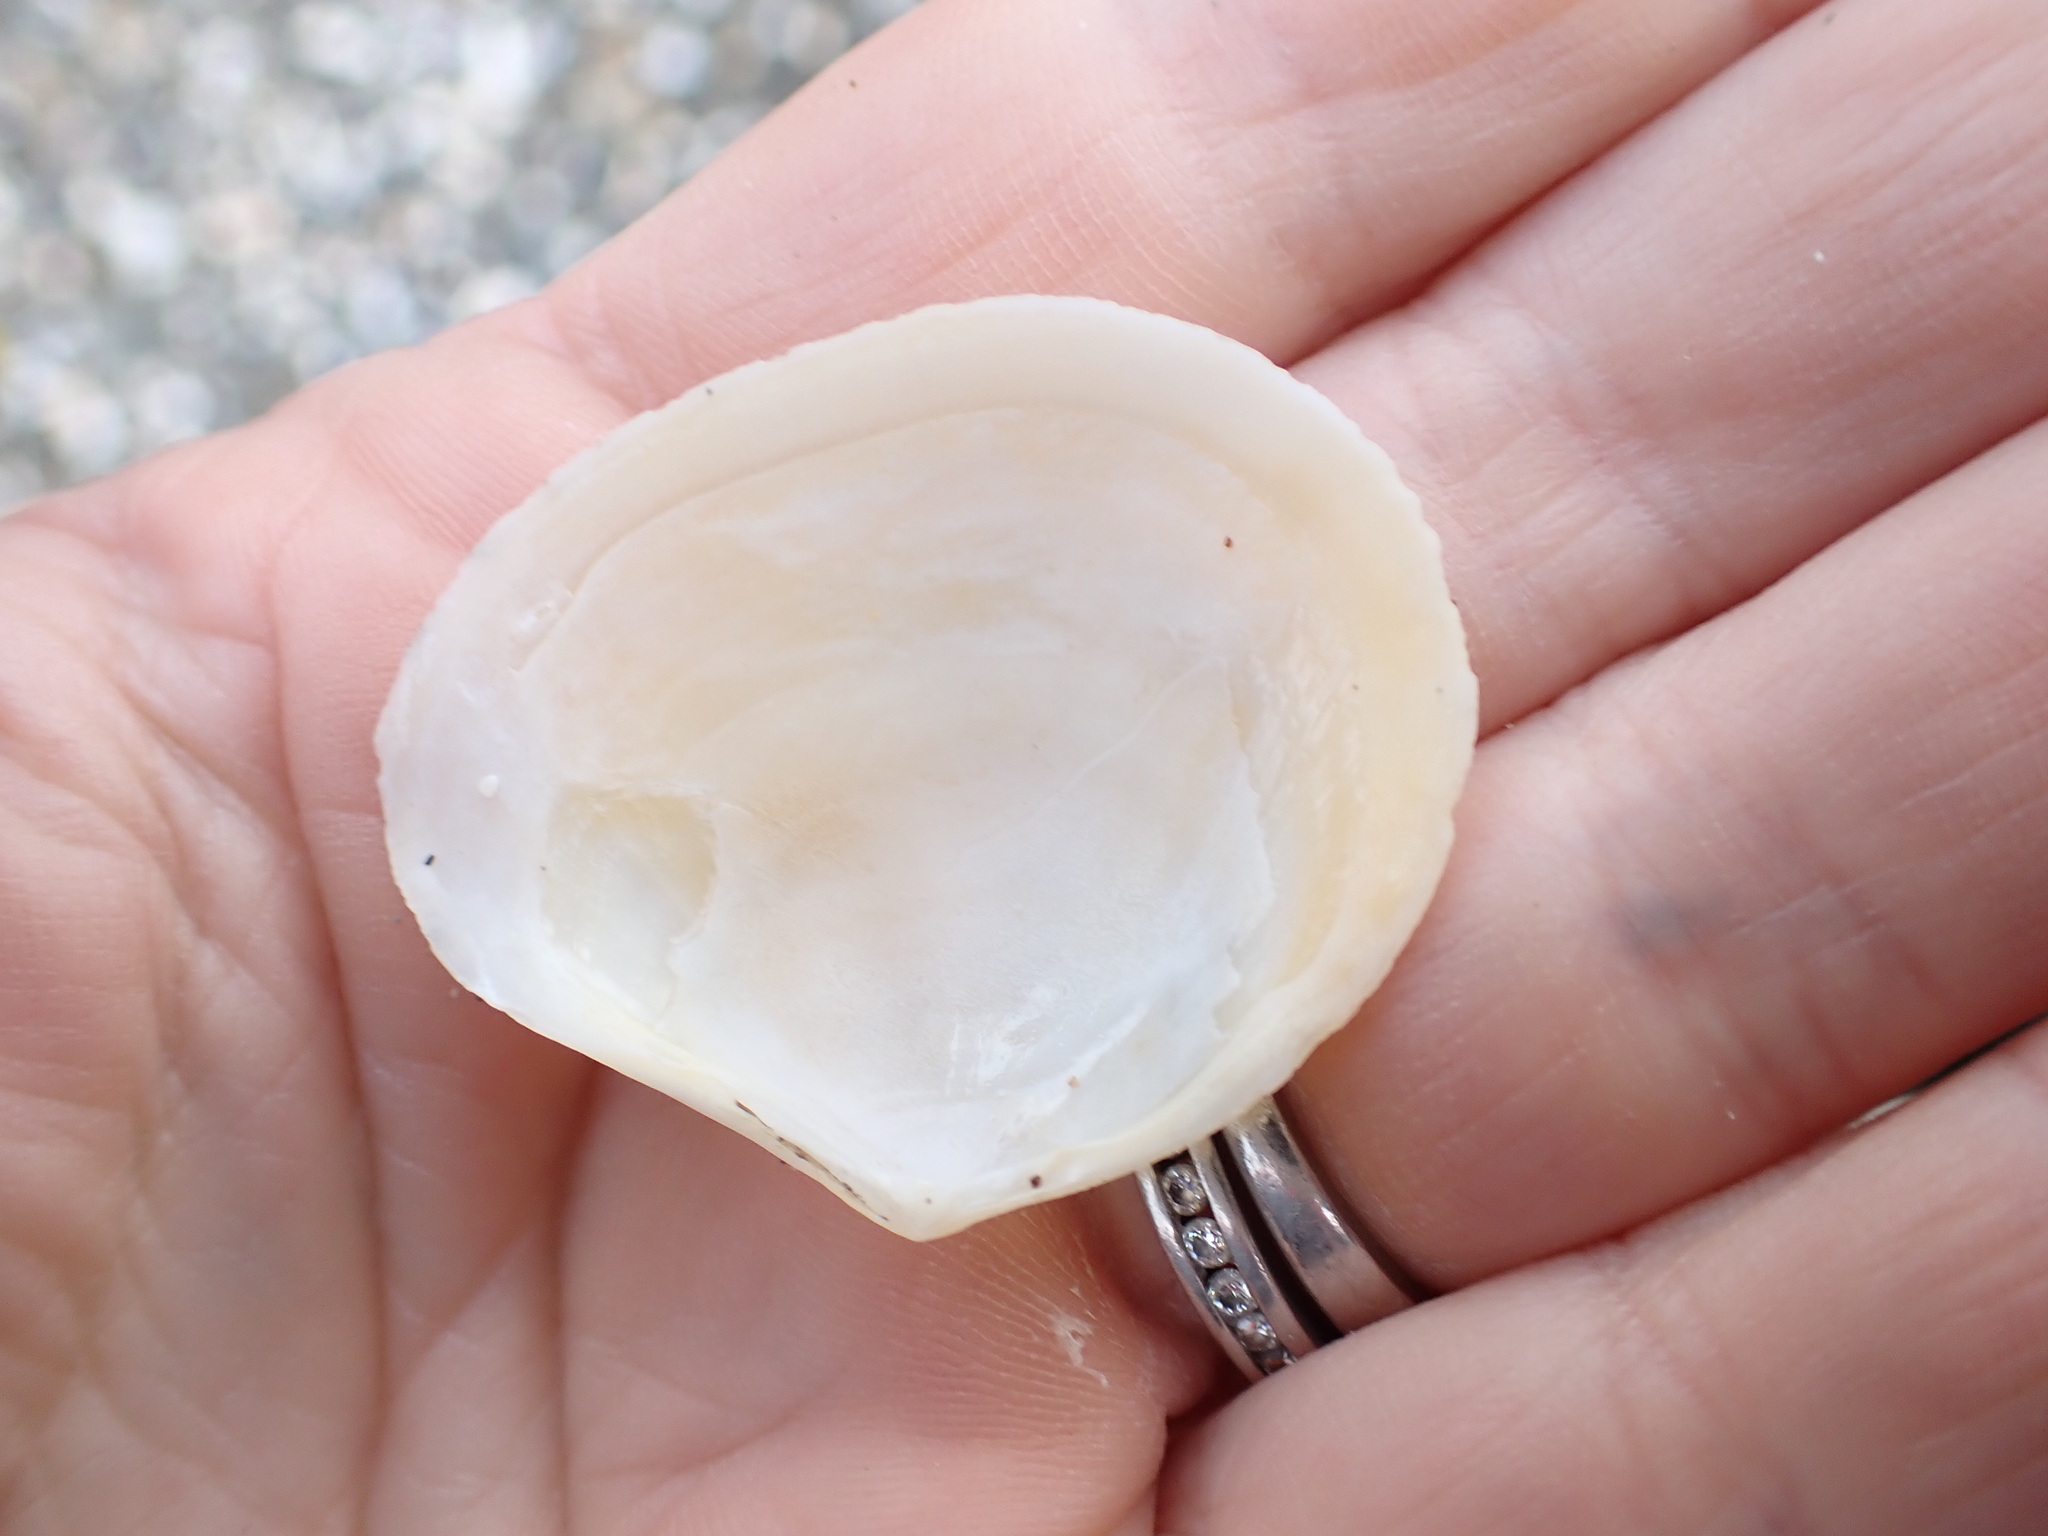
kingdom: Animalia
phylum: Mollusca
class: Bivalvia
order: Cardiida
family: Tellinidae
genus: Macomona
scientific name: Macomona liliana
